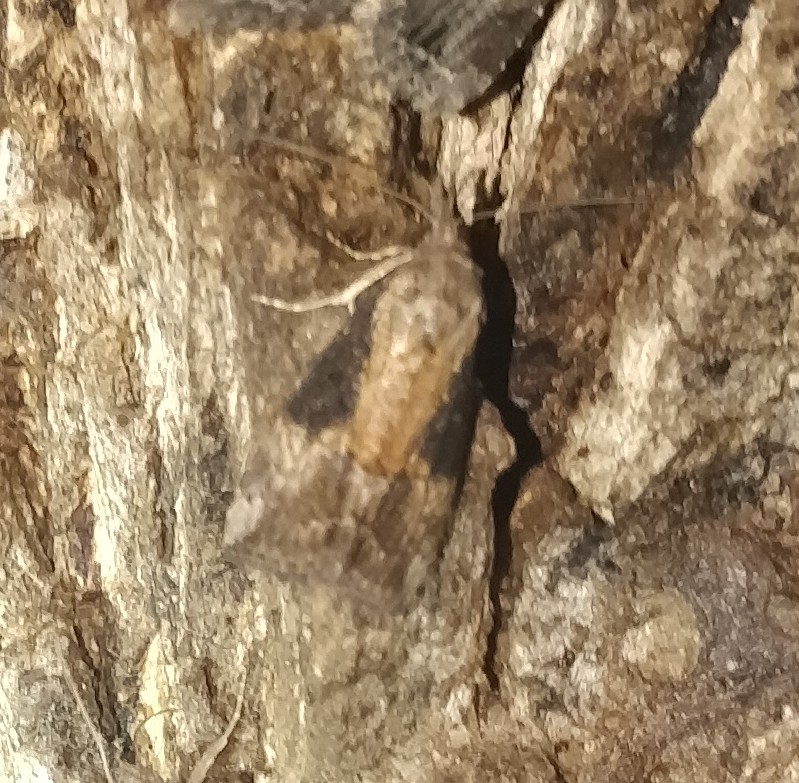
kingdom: Animalia
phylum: Arthropoda
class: Insecta
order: Lepidoptera
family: Erebidae
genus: Hypena
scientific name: Hypena scabra
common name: Green cloverworm
